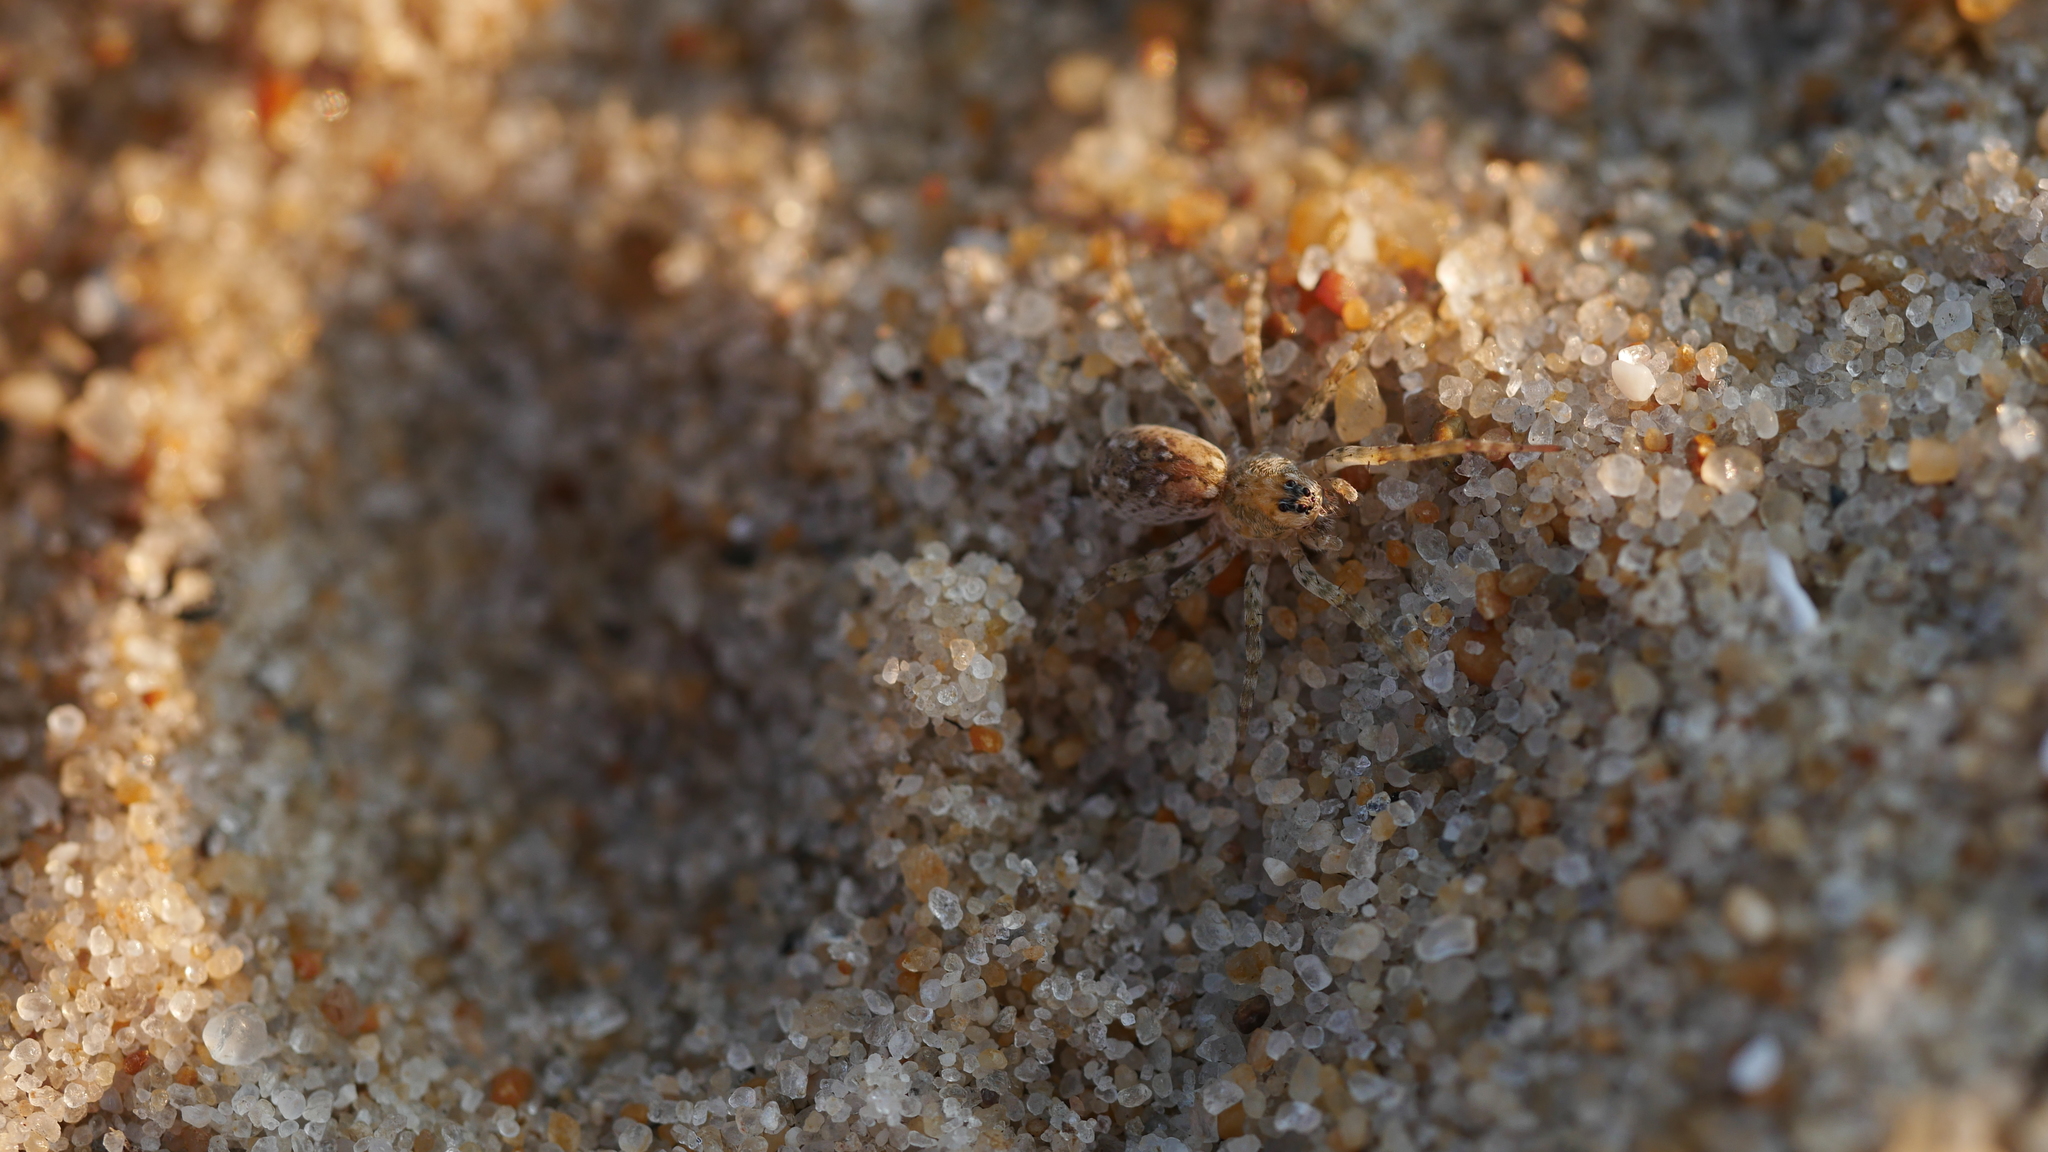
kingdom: Animalia
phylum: Arthropoda
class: Arachnida
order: Araneae
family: Lycosidae
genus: Arctosa
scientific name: Arctosa littoralis
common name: Wolf spiders
